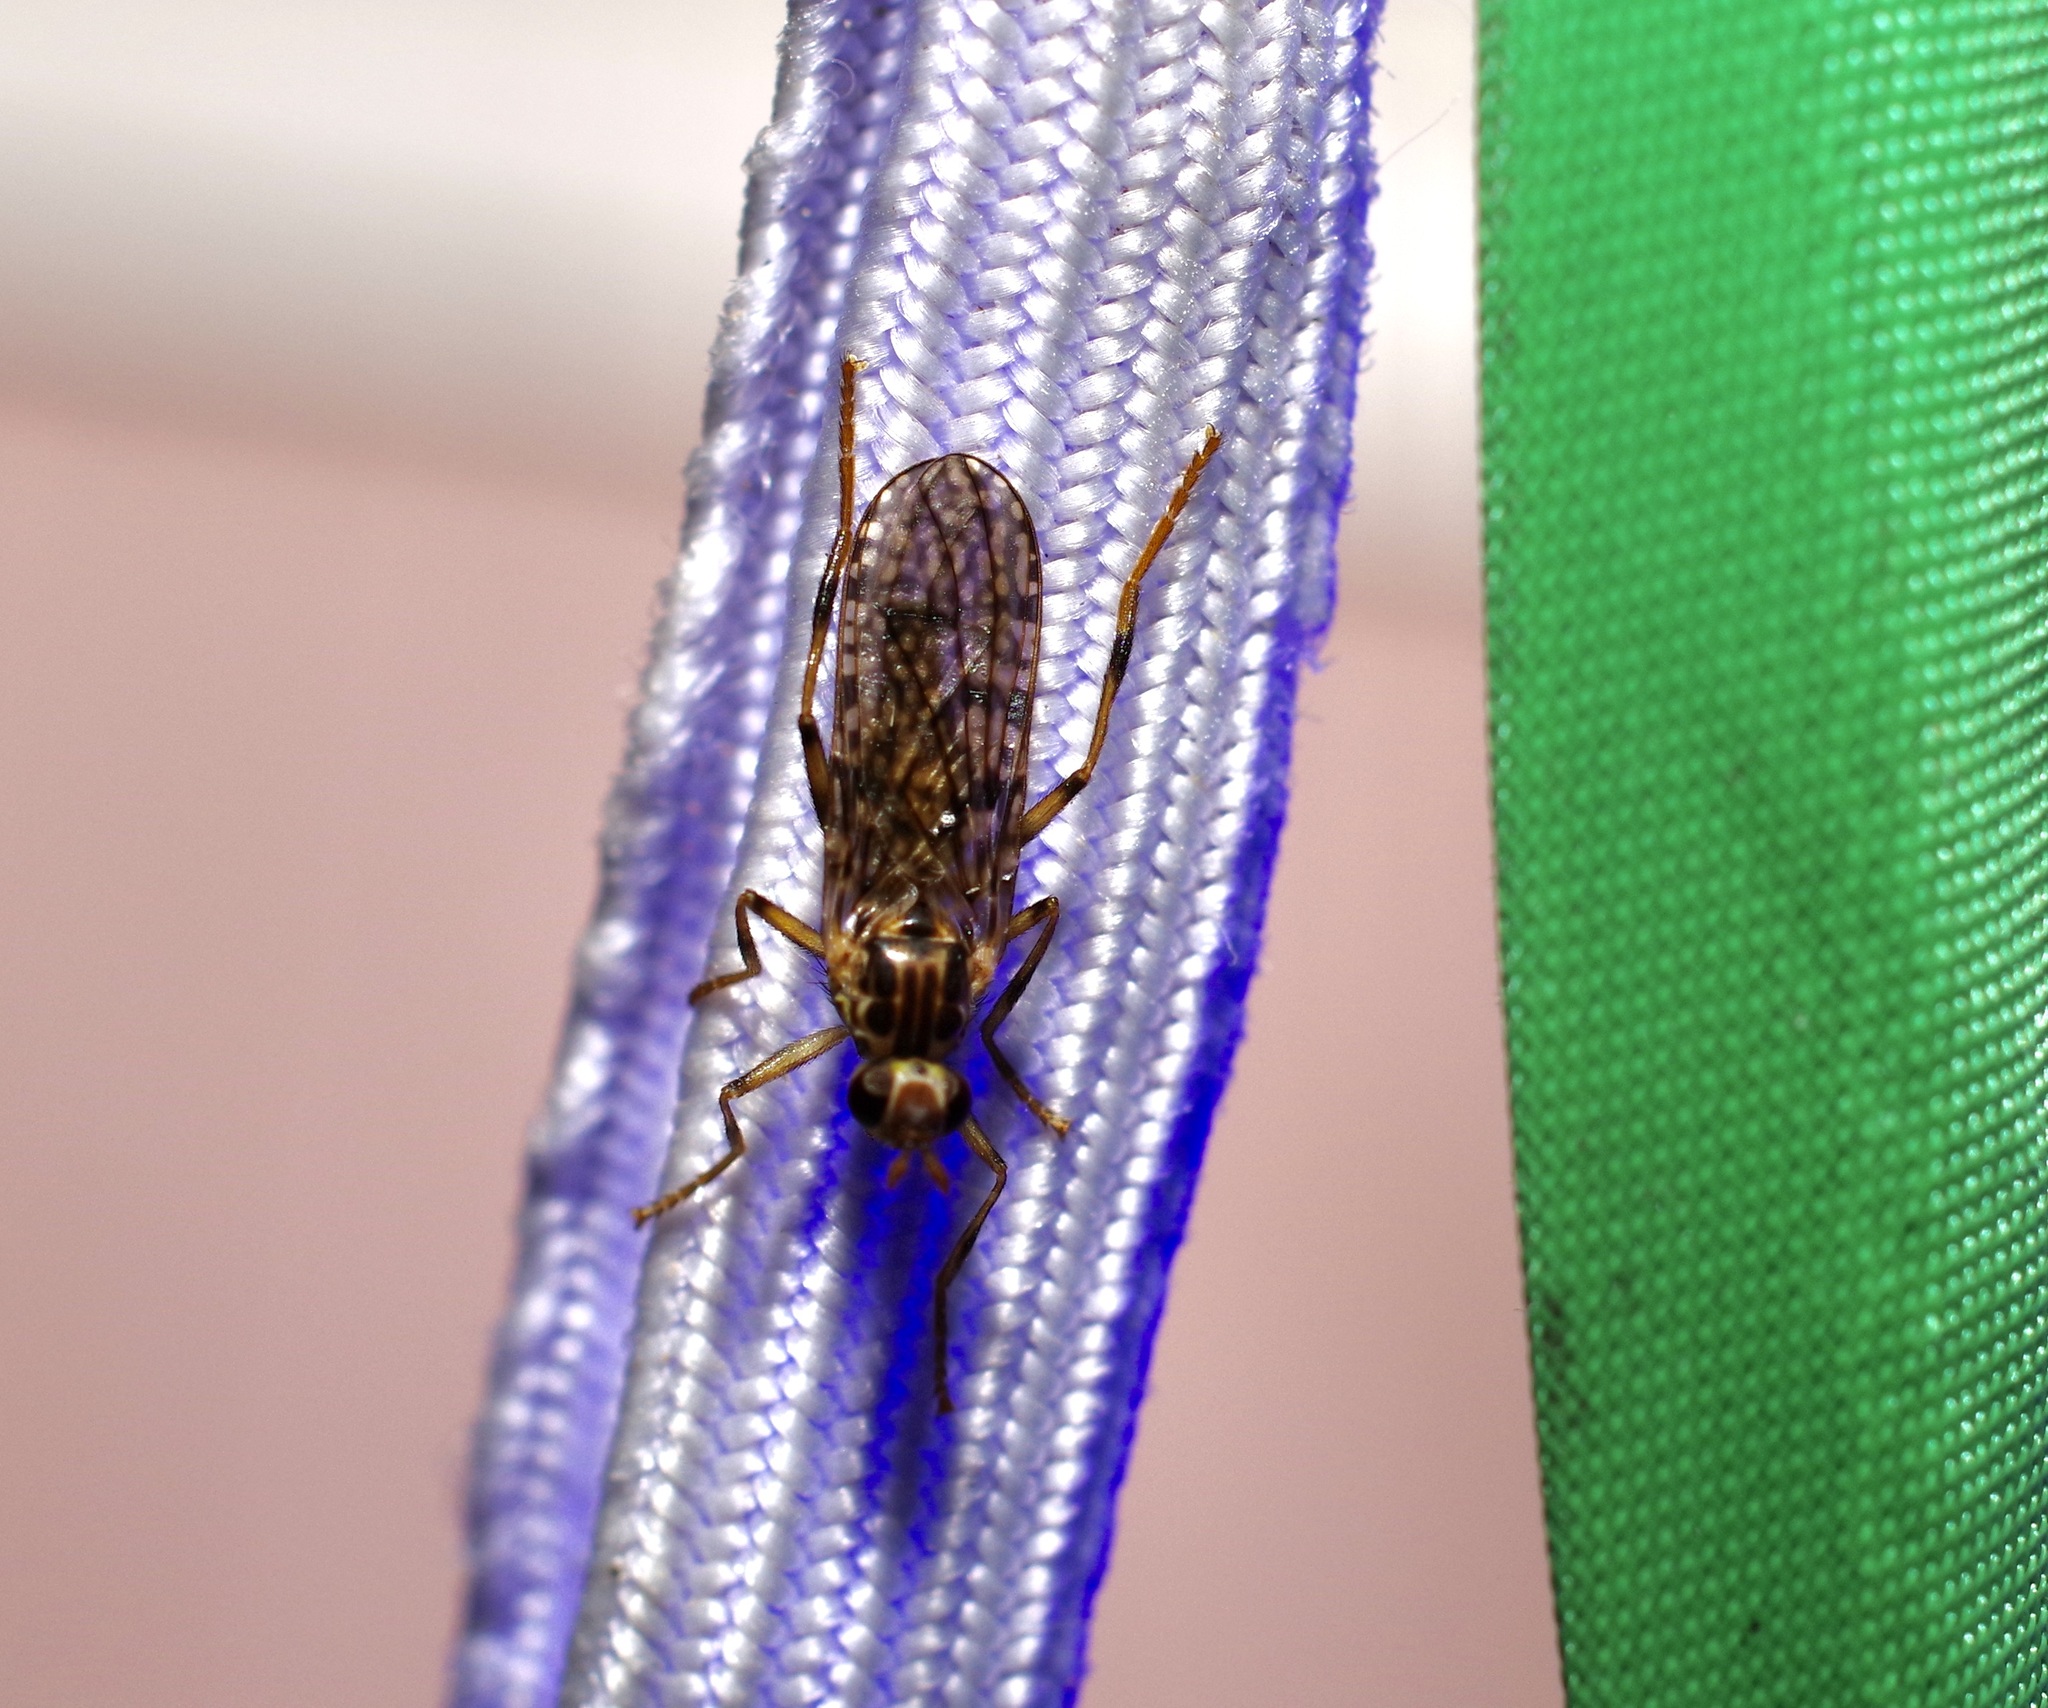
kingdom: Animalia
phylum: Arthropoda
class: Insecta
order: Diptera
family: Pyrgotidae
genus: Boreothrinax
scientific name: Boreothrinax
